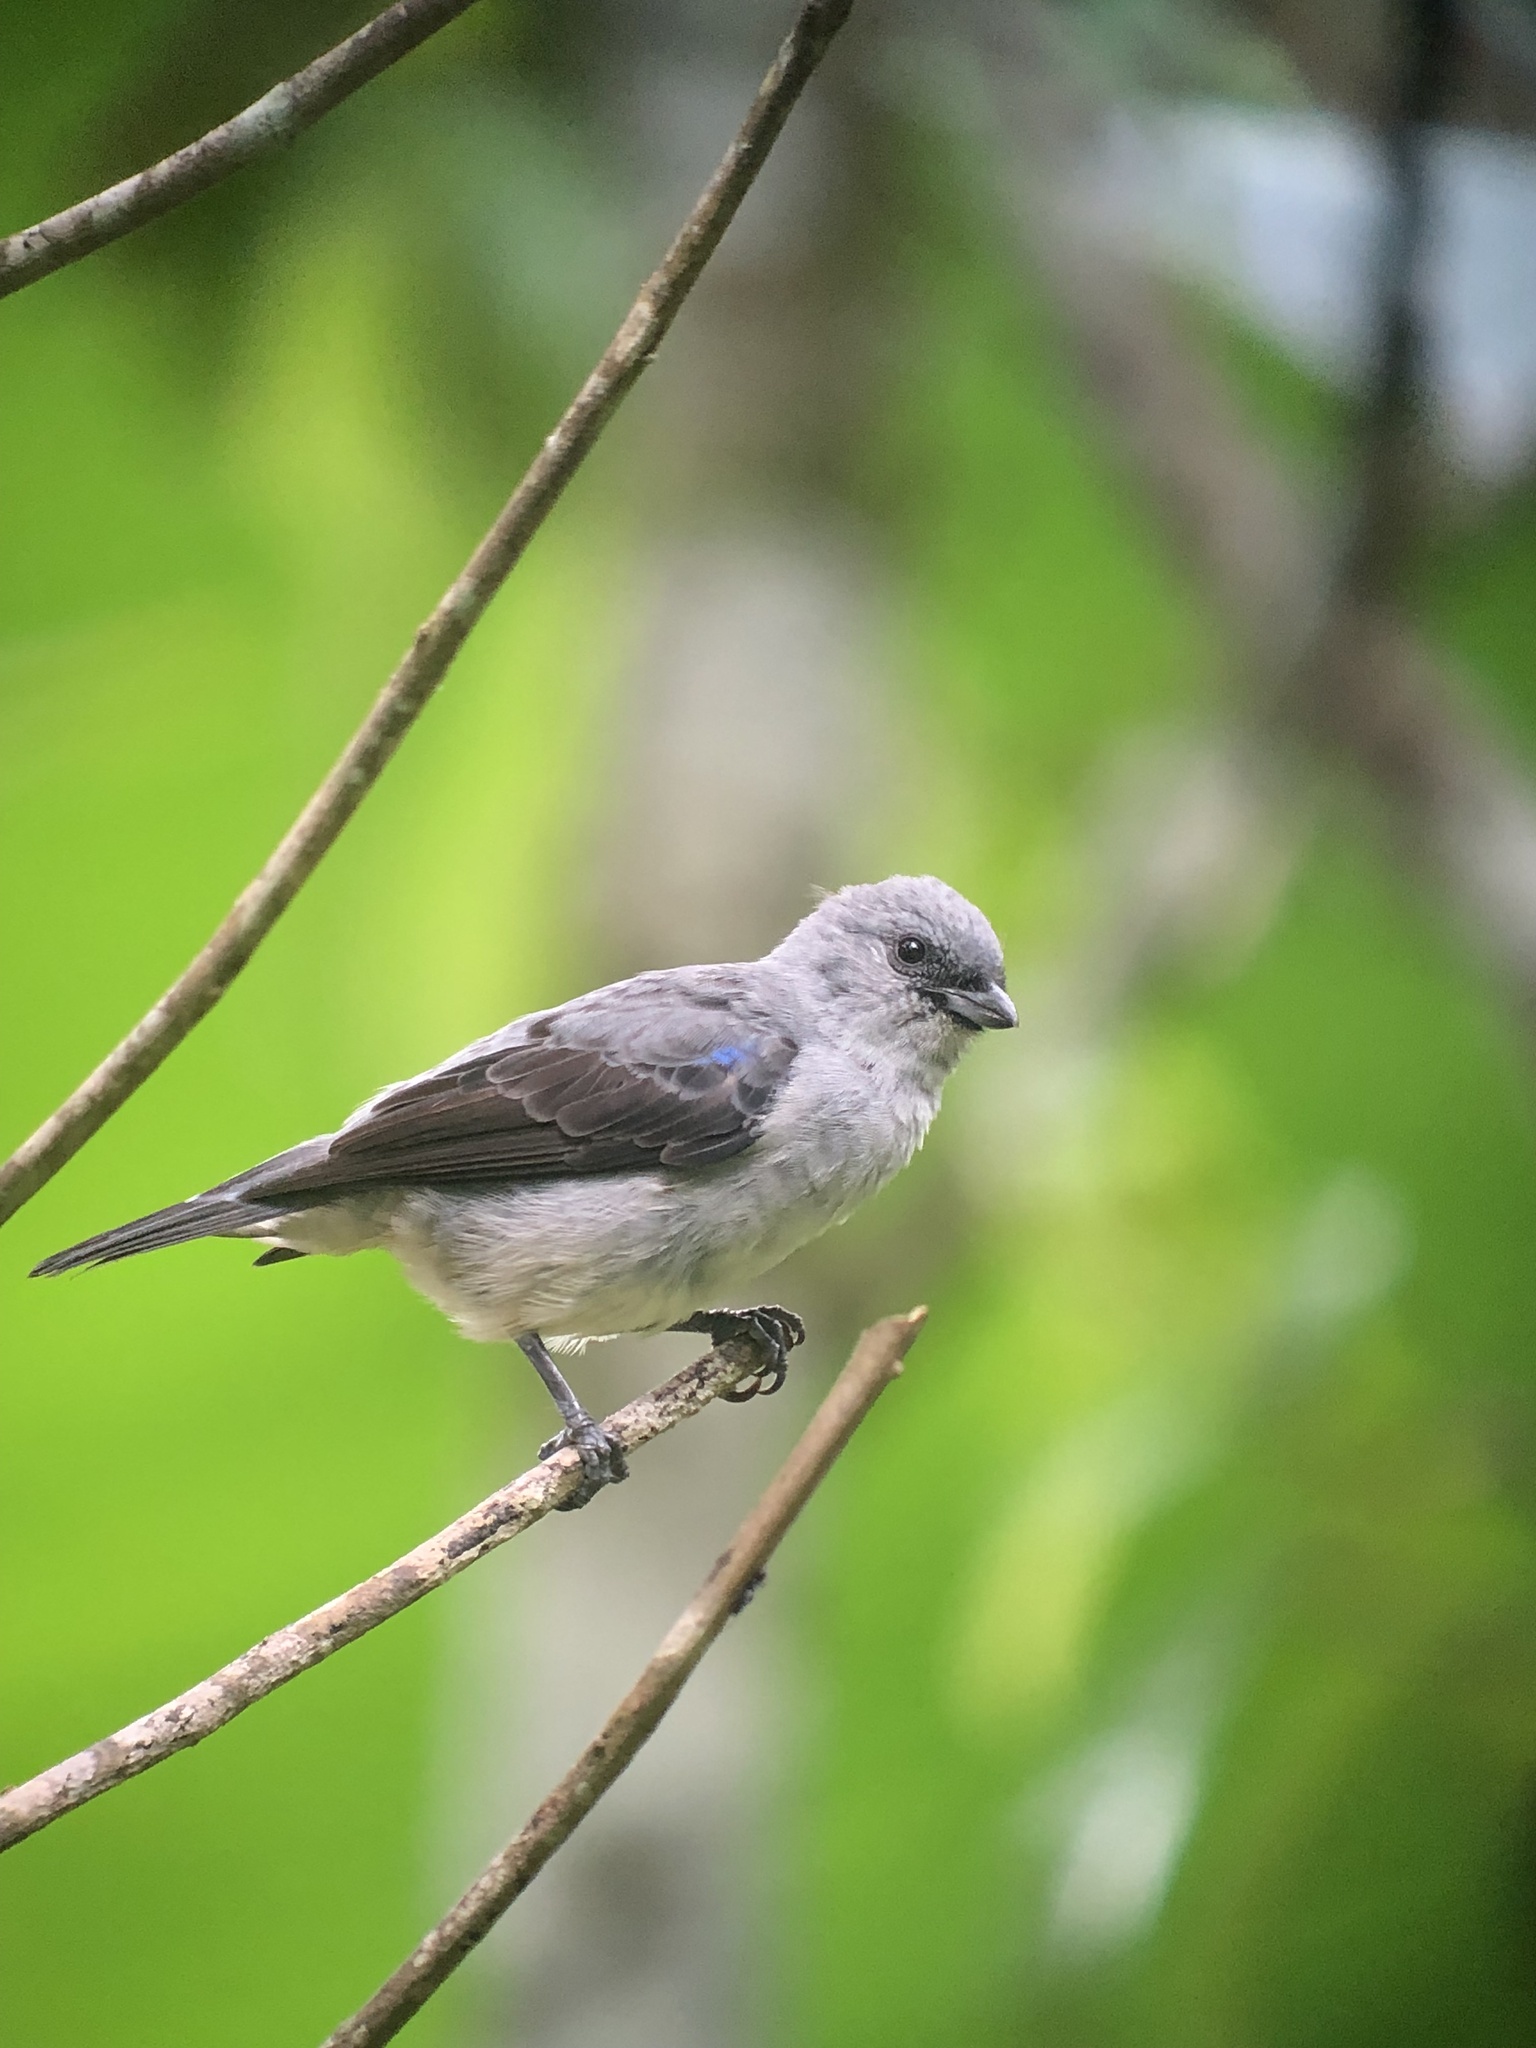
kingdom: Animalia
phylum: Chordata
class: Aves
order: Passeriformes
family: Thraupidae
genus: Tangara
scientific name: Tangara inornata
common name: Plain-colored tanager
